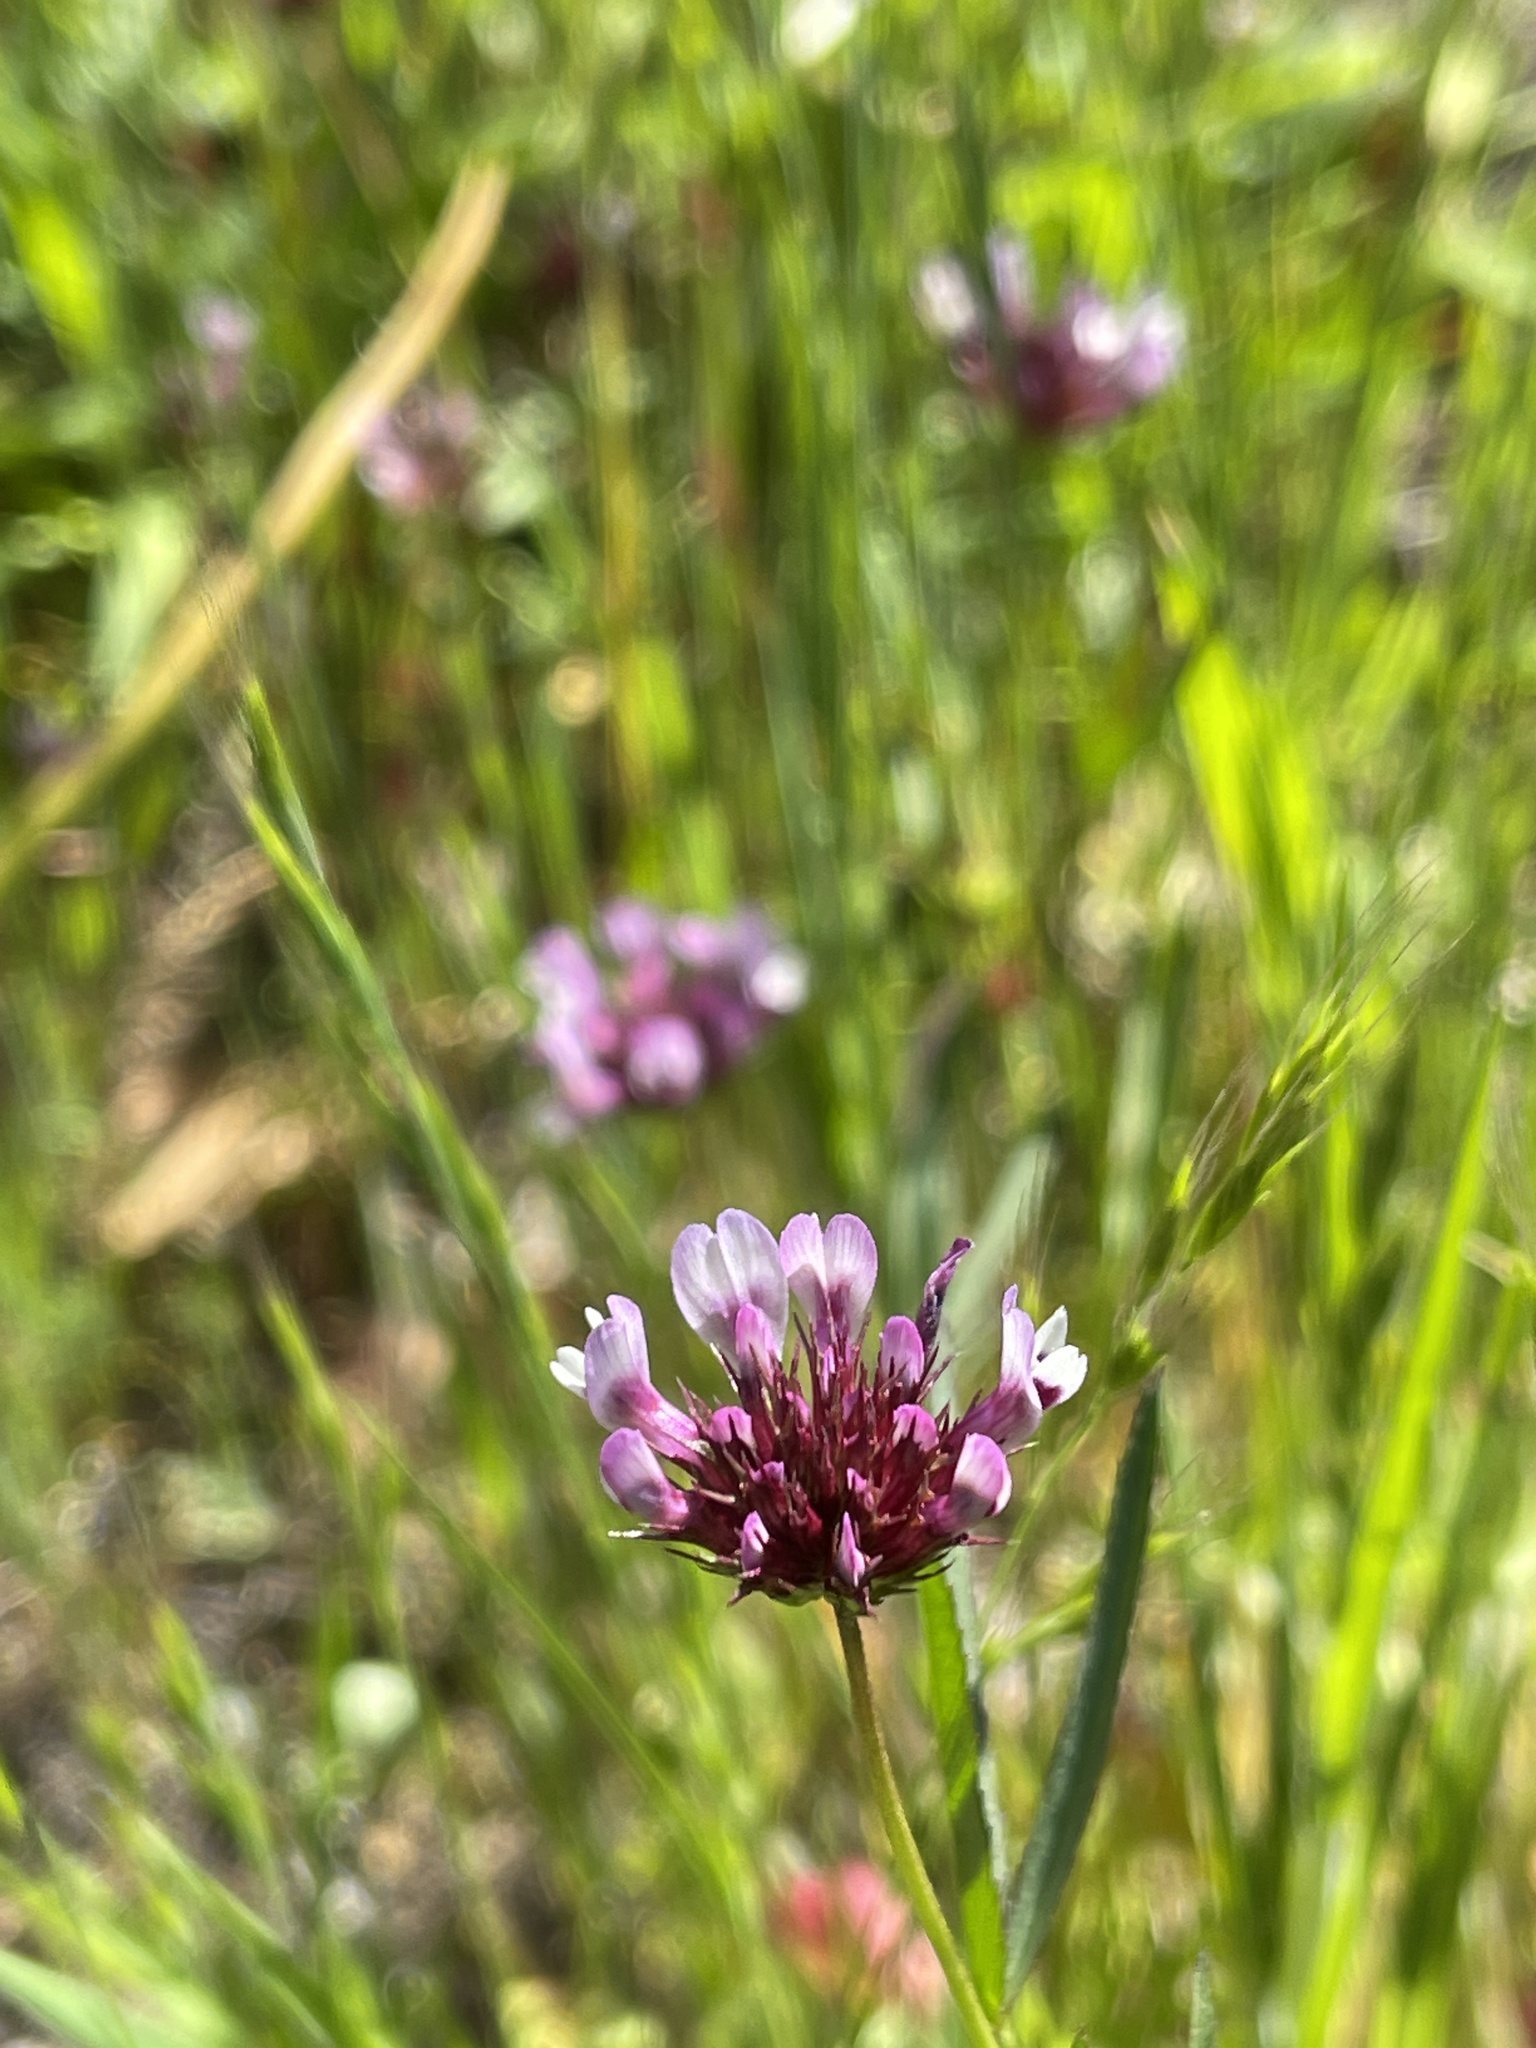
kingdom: Plantae
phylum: Tracheophyta
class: Magnoliopsida
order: Fabales
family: Fabaceae
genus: Trifolium
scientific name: Trifolium willdenovii
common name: Tomcat clover
